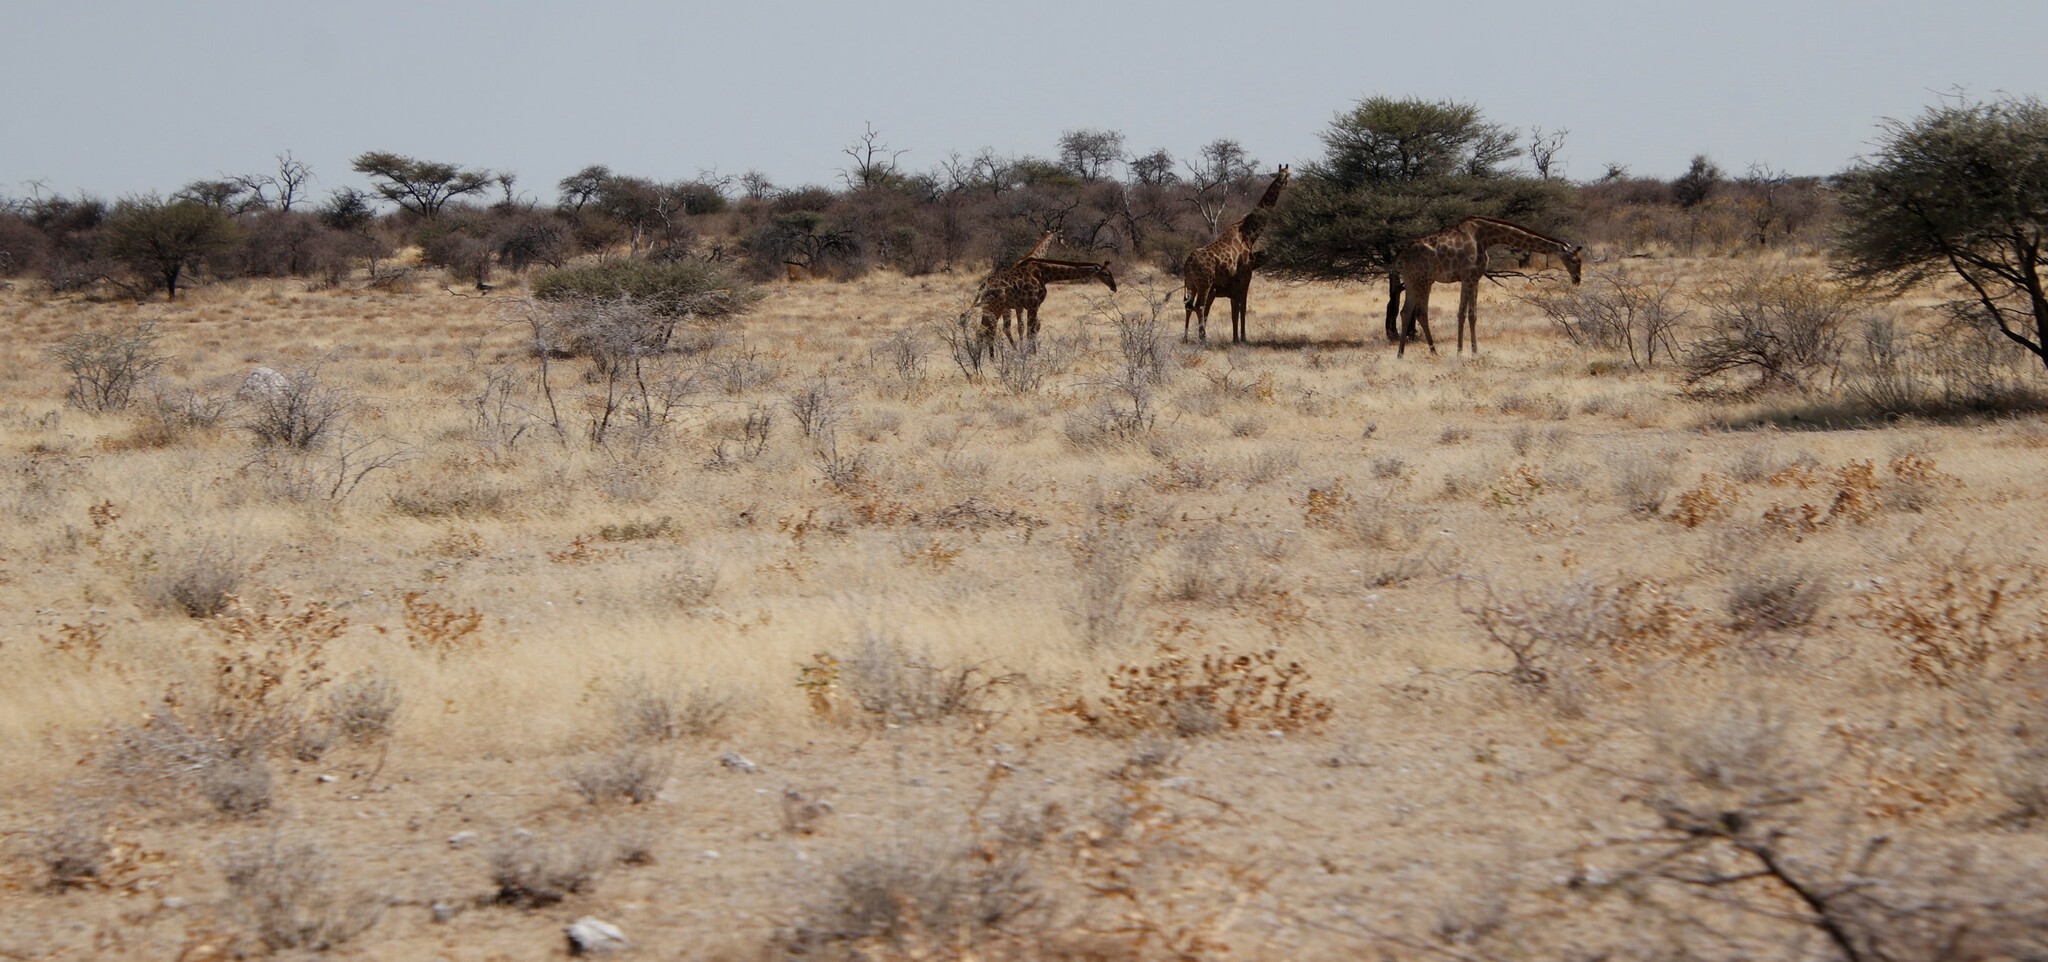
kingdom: Animalia
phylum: Chordata
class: Mammalia
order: Artiodactyla
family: Giraffidae
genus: Giraffa
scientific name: Giraffa giraffa
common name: Southern giraffe
